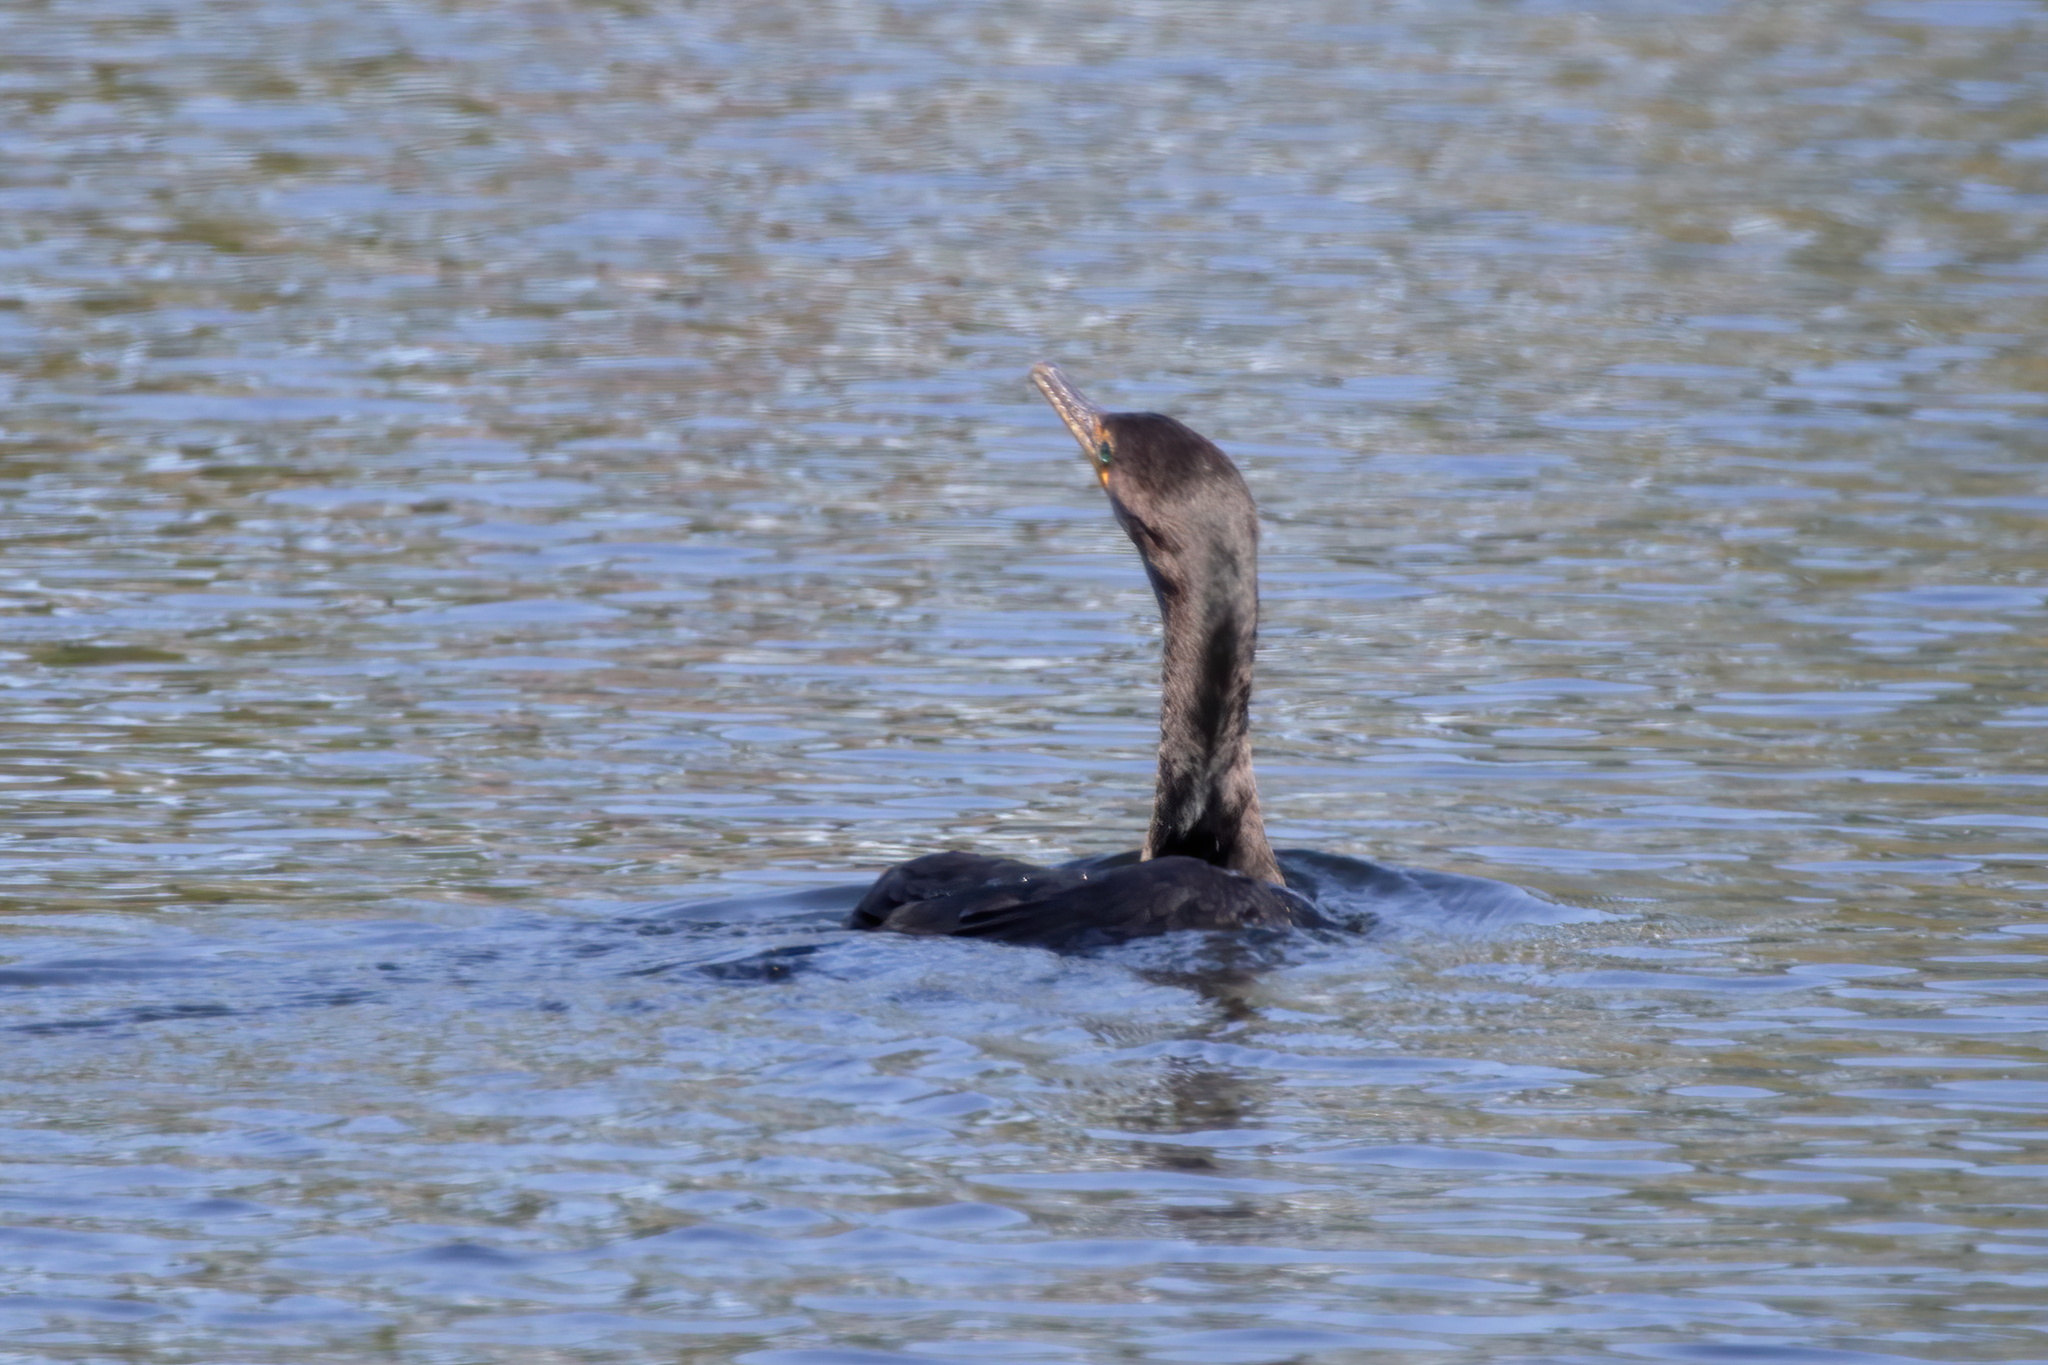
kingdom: Animalia
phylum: Chordata
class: Aves
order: Suliformes
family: Phalacrocoracidae
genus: Phalacrocorax
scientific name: Phalacrocorax auritus
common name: Double-crested cormorant
